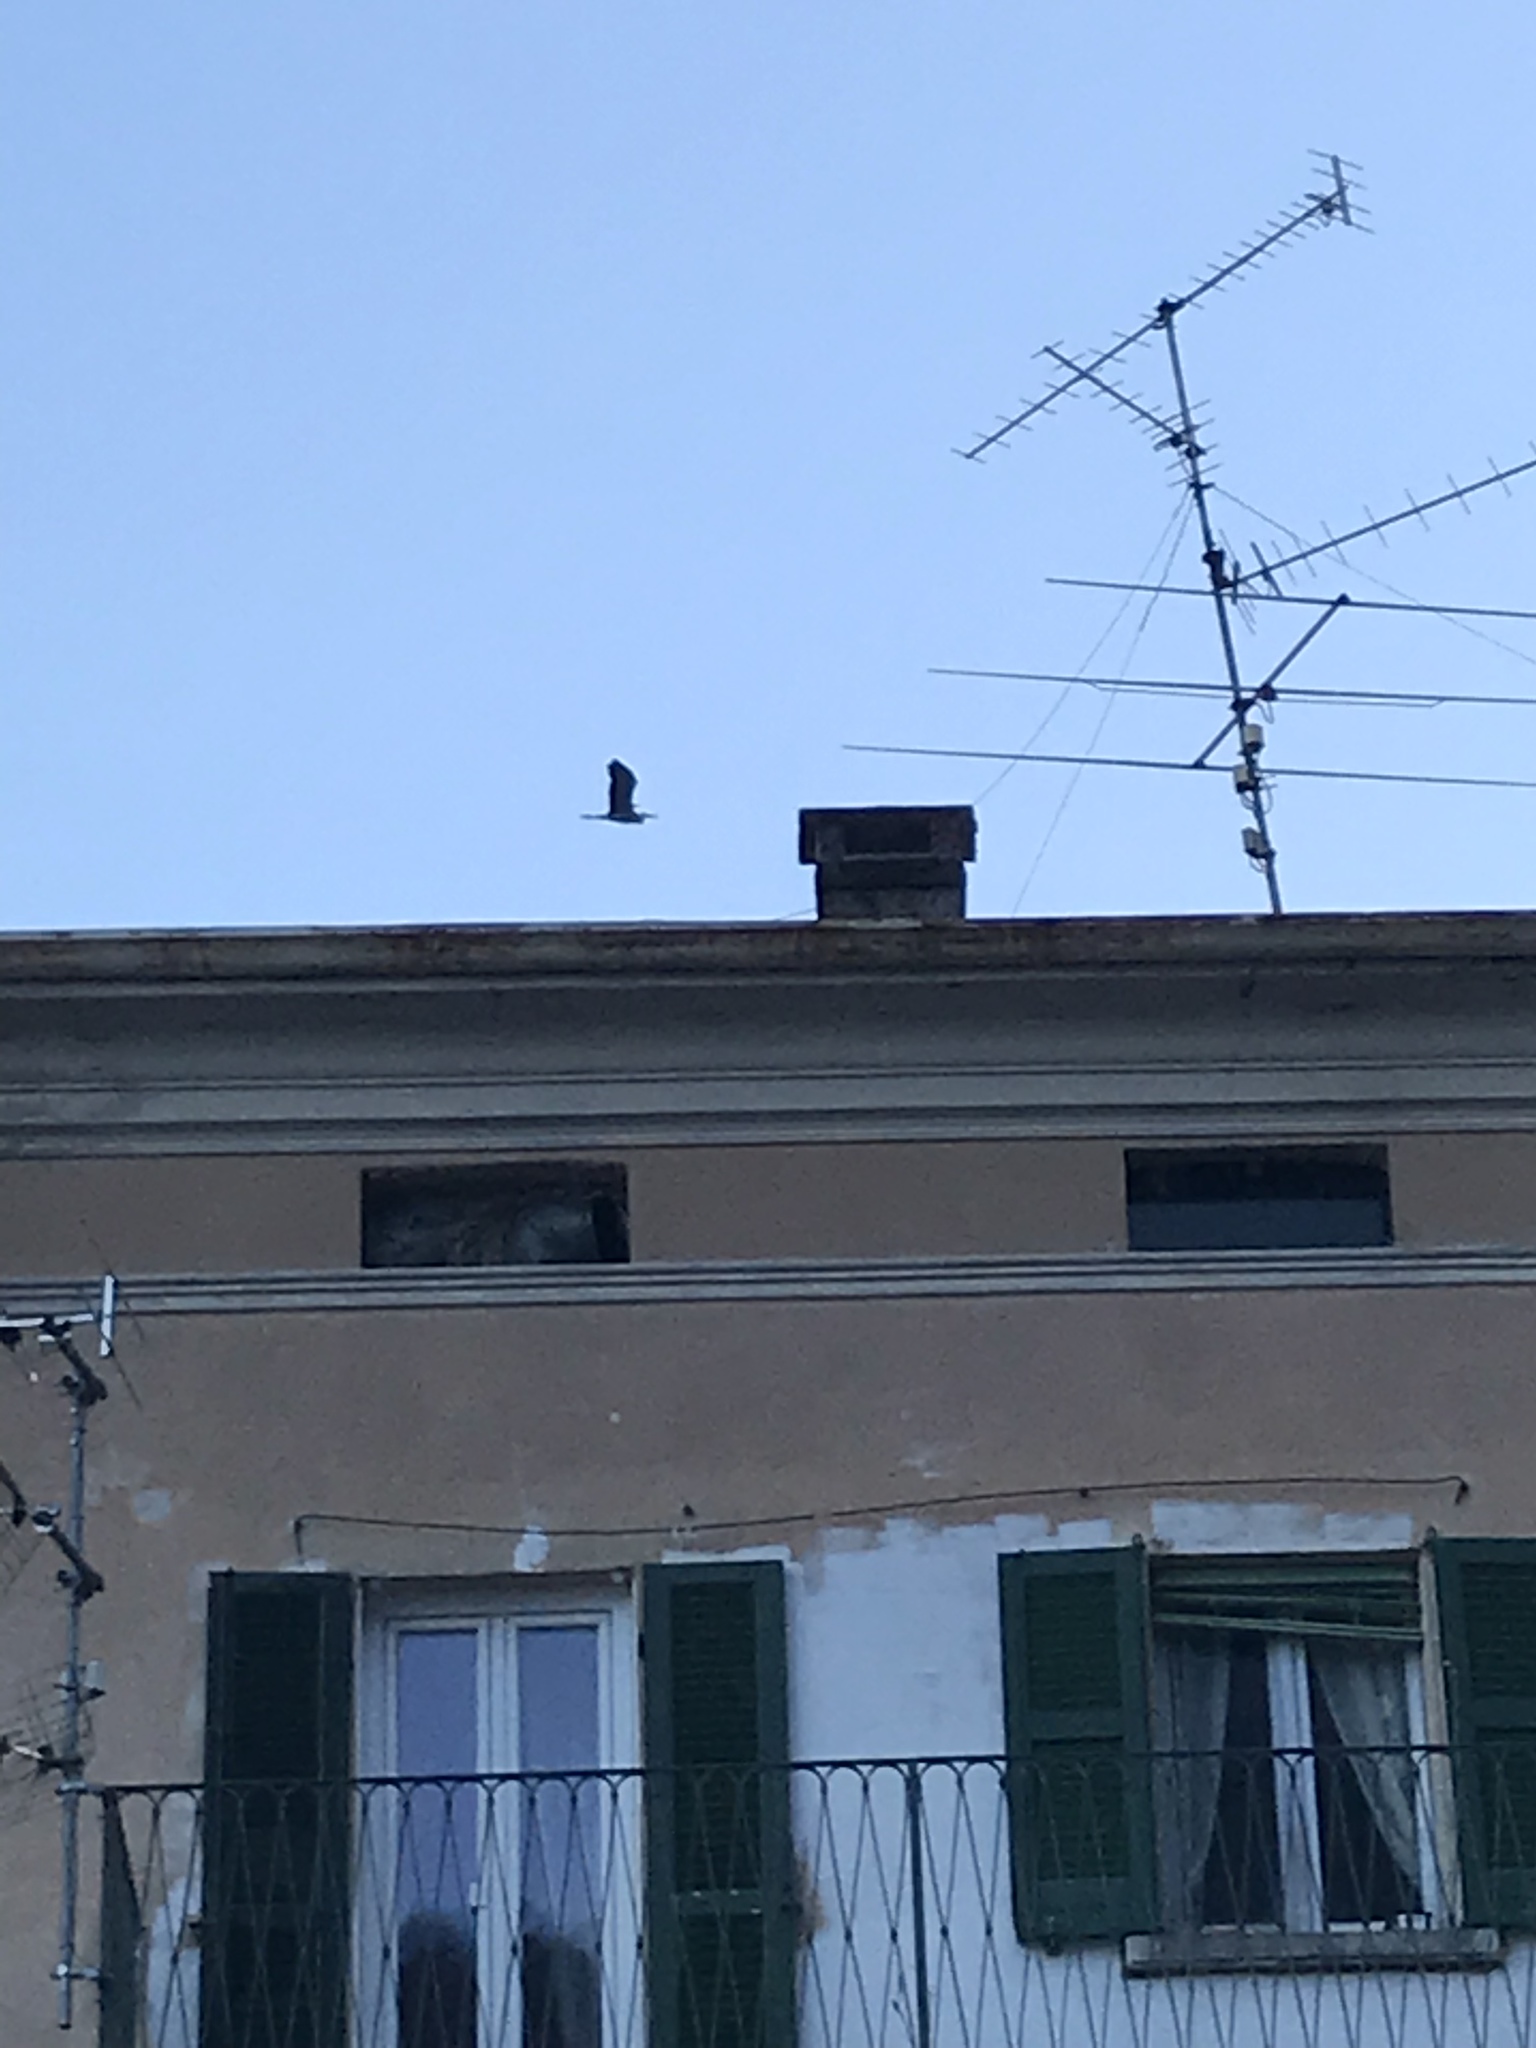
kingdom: Animalia
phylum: Chordata
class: Aves
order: Pelecaniformes
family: Ardeidae
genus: Ardea
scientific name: Ardea cinerea
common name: Grey heron
